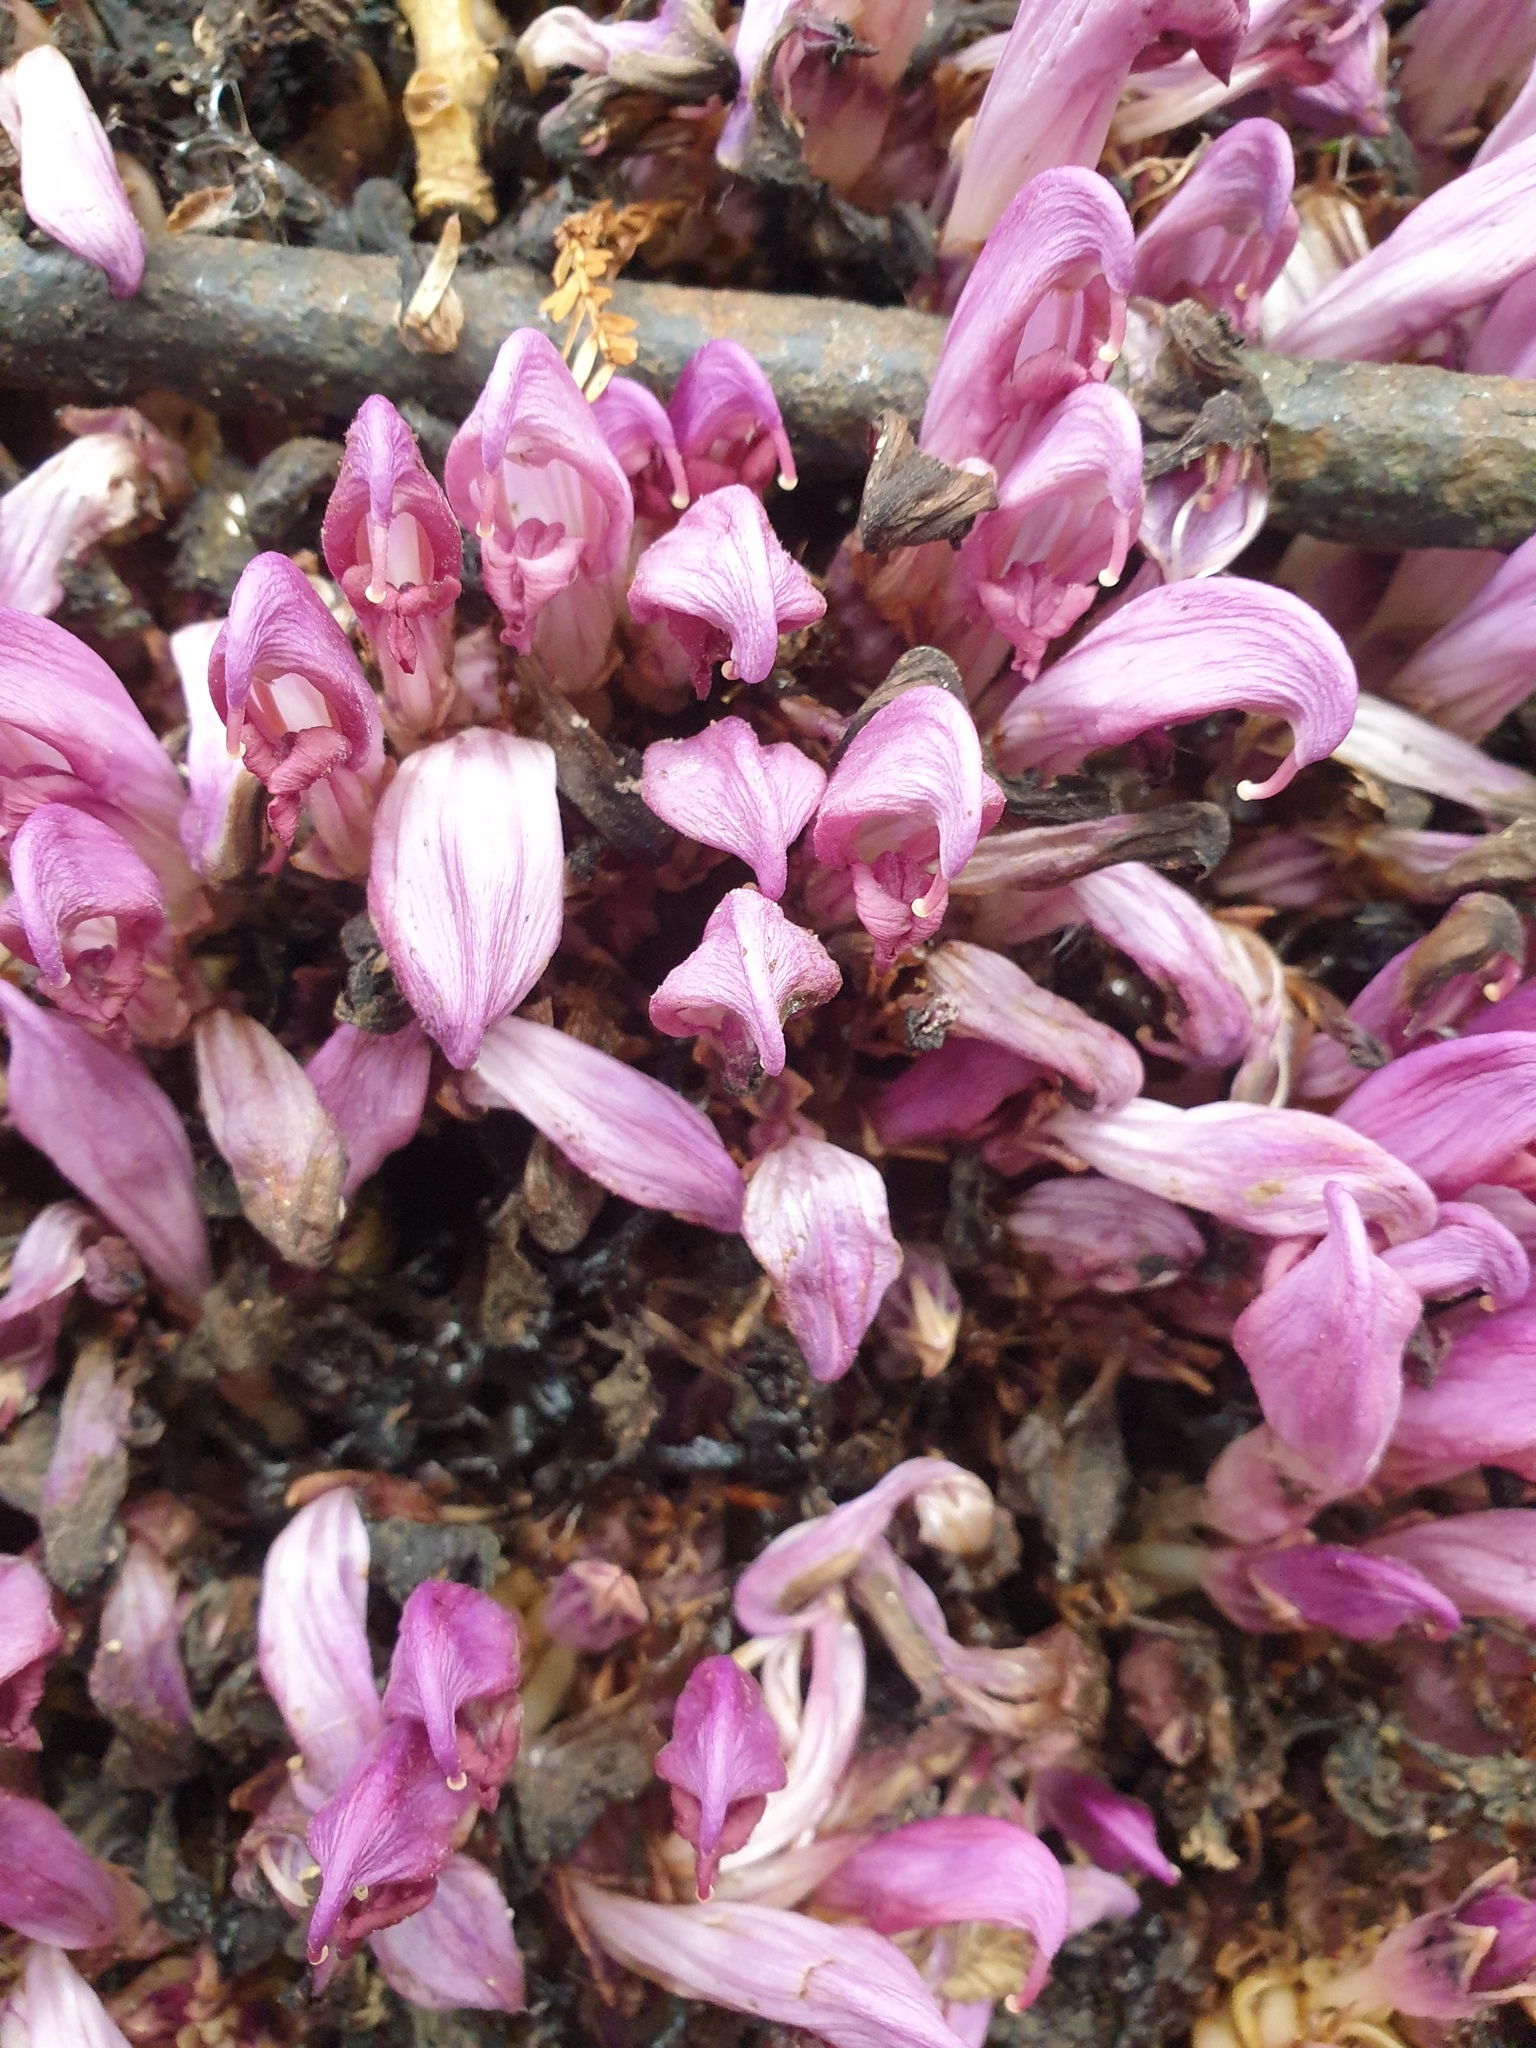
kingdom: Plantae
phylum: Tracheophyta
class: Magnoliopsida
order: Lamiales
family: Orobanchaceae
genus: Lathraea
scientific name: Lathraea clandestina
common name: Purple toothwort
